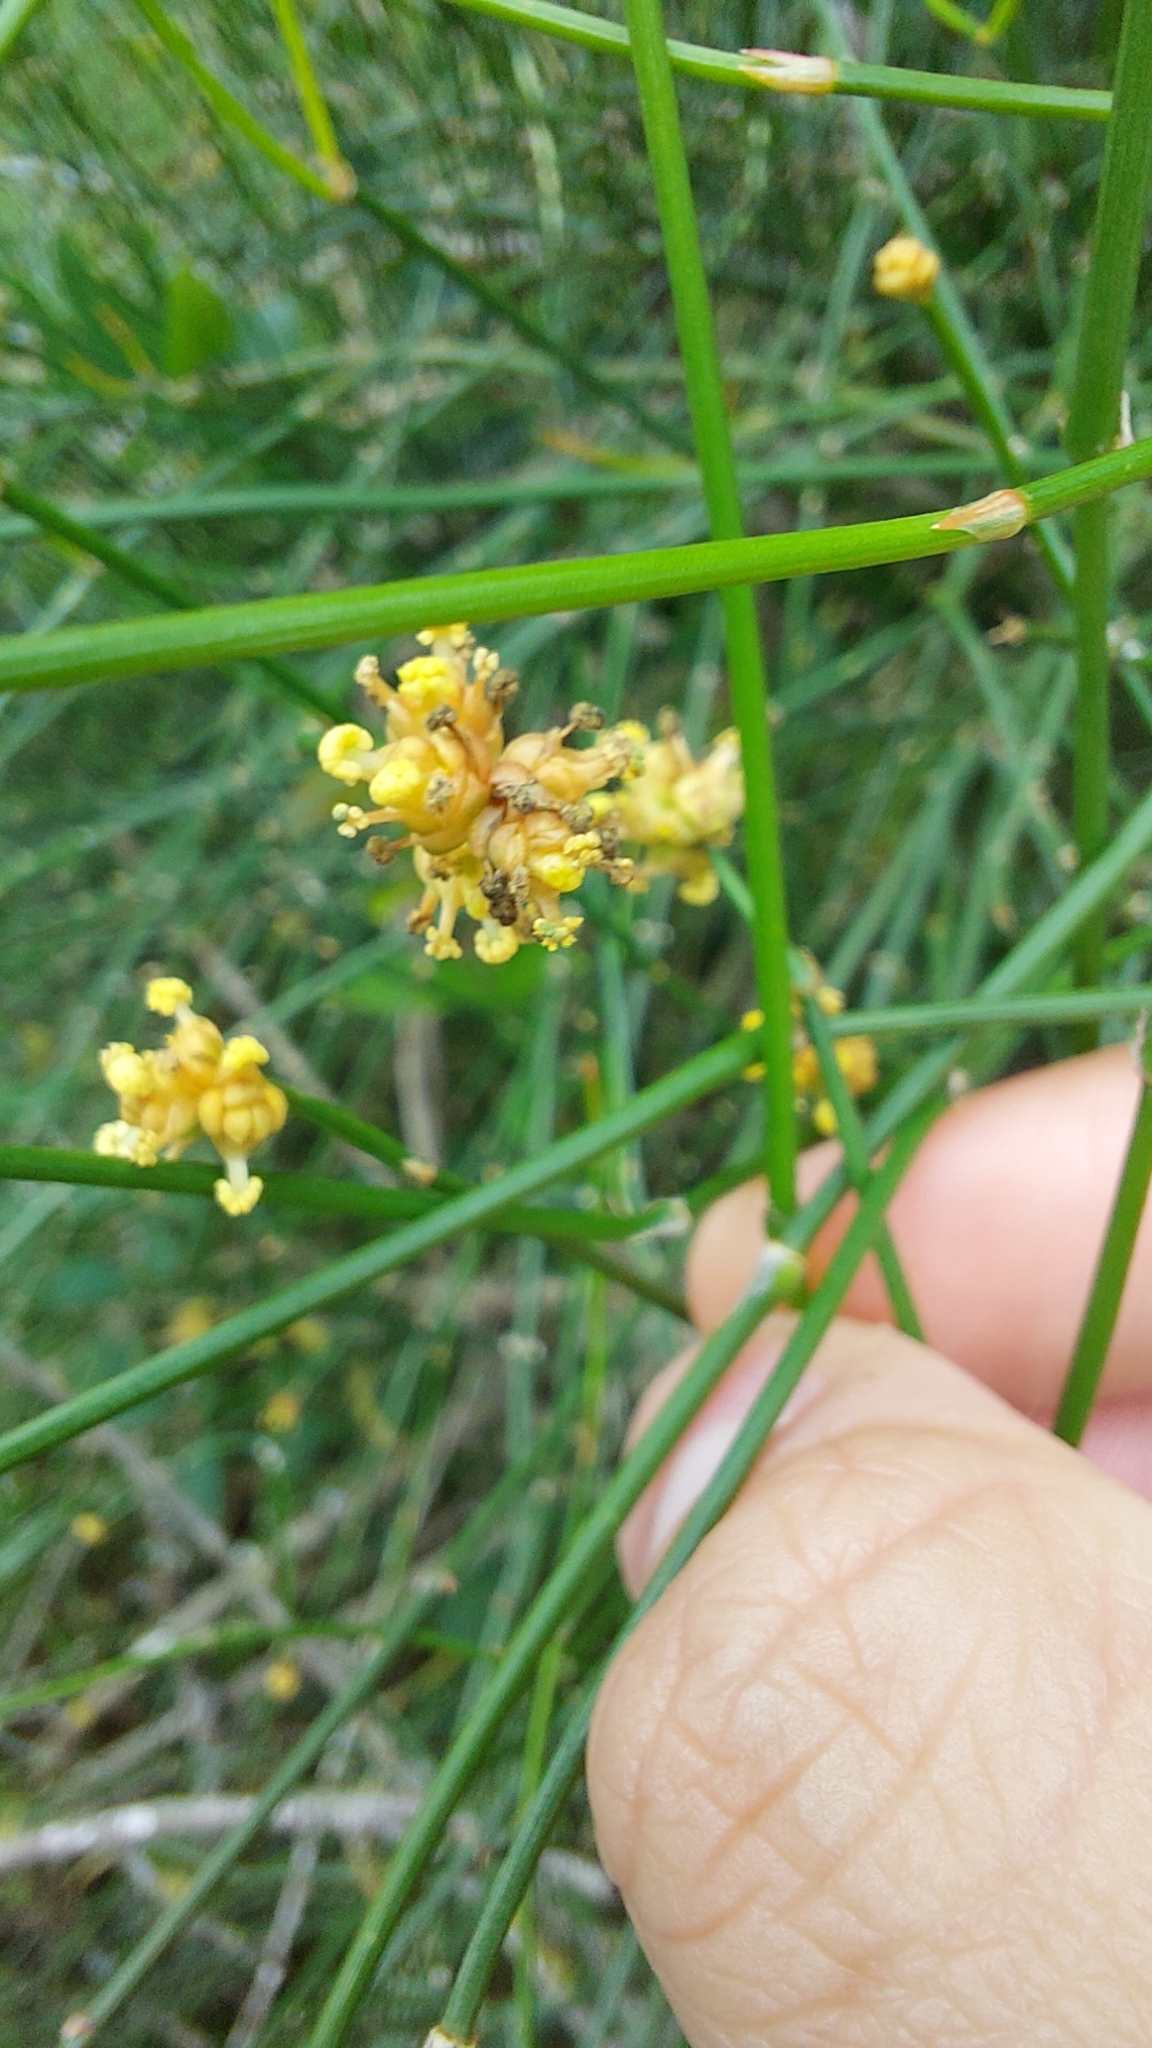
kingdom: Plantae
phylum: Tracheophyta
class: Gnetopsida
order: Ephedrales
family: Ephedraceae
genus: Ephedra
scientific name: Ephedra tweedieana
